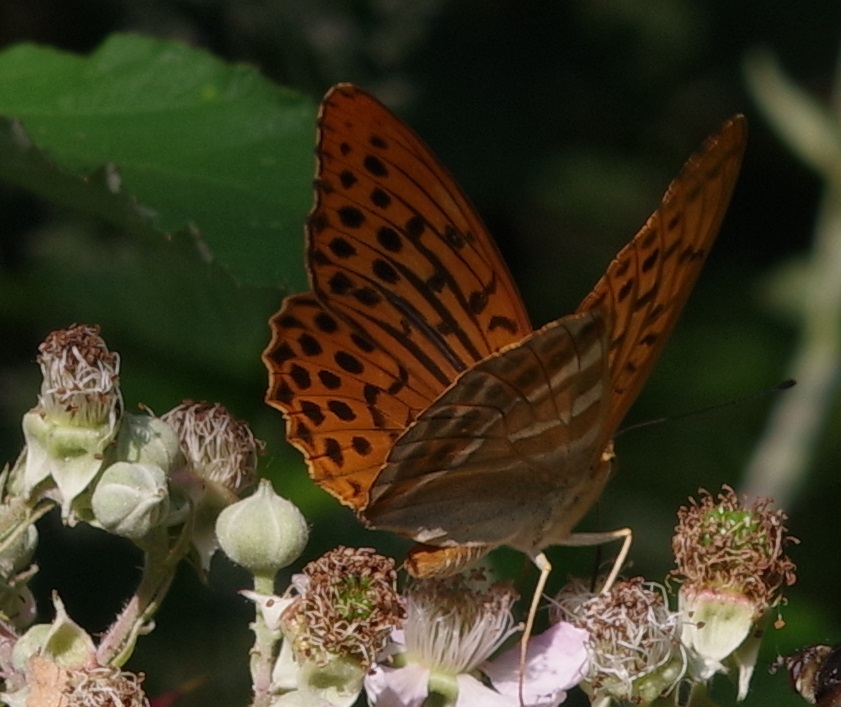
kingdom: Animalia
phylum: Arthropoda
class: Insecta
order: Lepidoptera
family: Nymphalidae
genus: Argynnis
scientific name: Argynnis paphia
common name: Silver-washed fritillary
